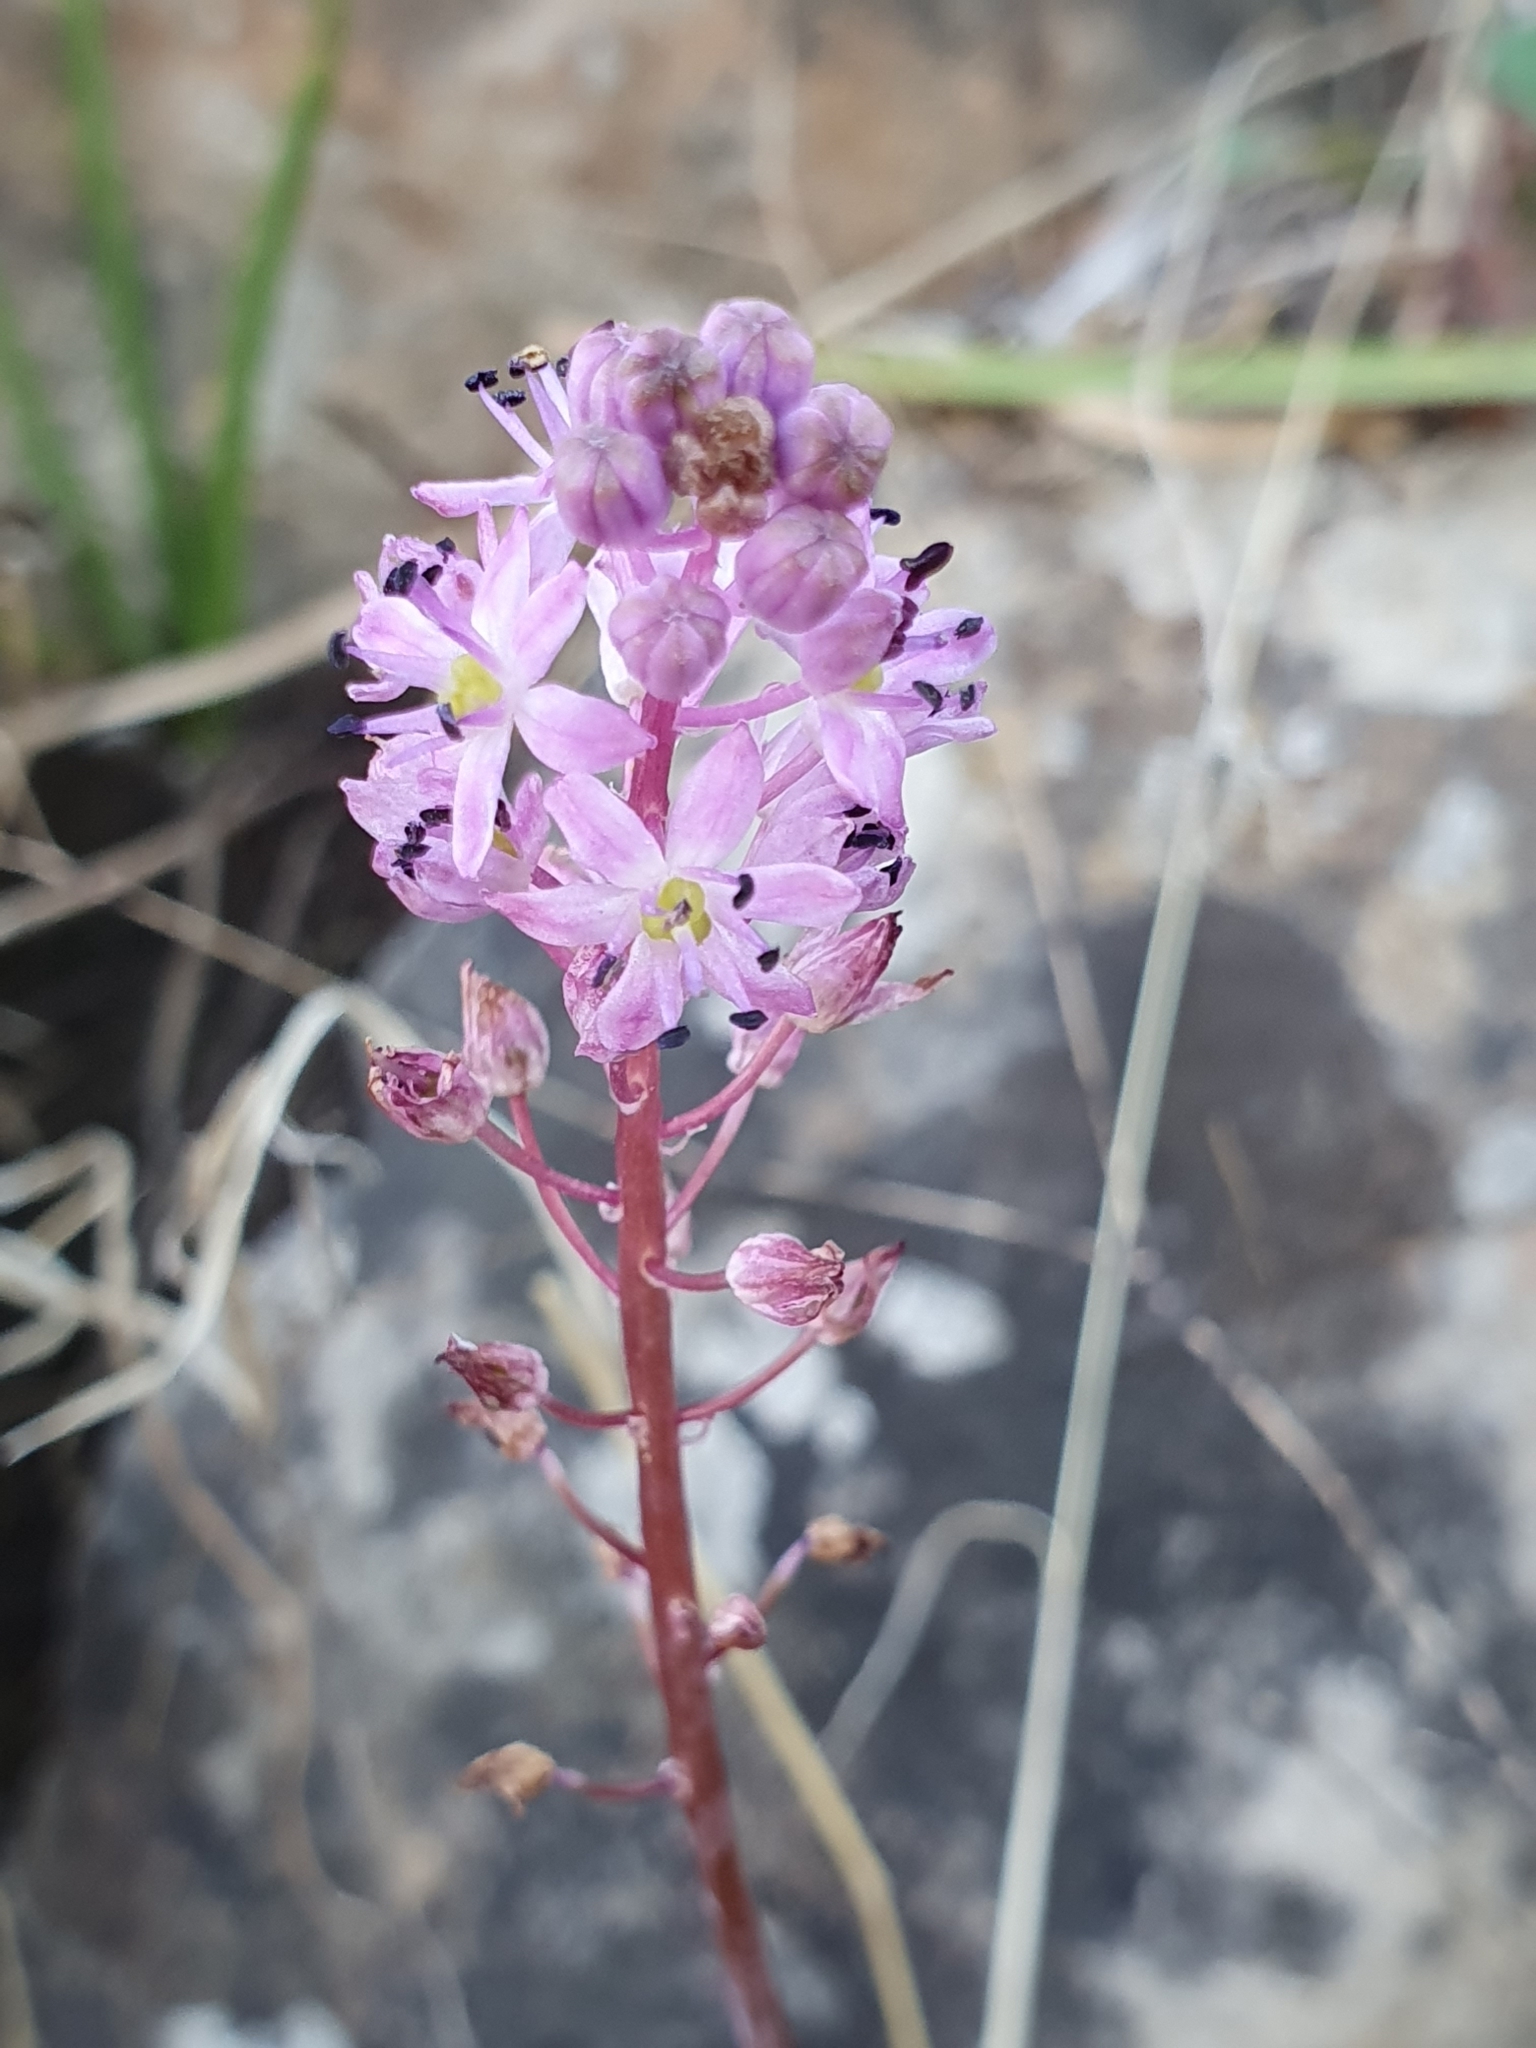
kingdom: Plantae
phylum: Tracheophyta
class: Liliopsida
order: Asparagales
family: Asparagaceae
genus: Barnardia
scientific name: Barnardia numidica
